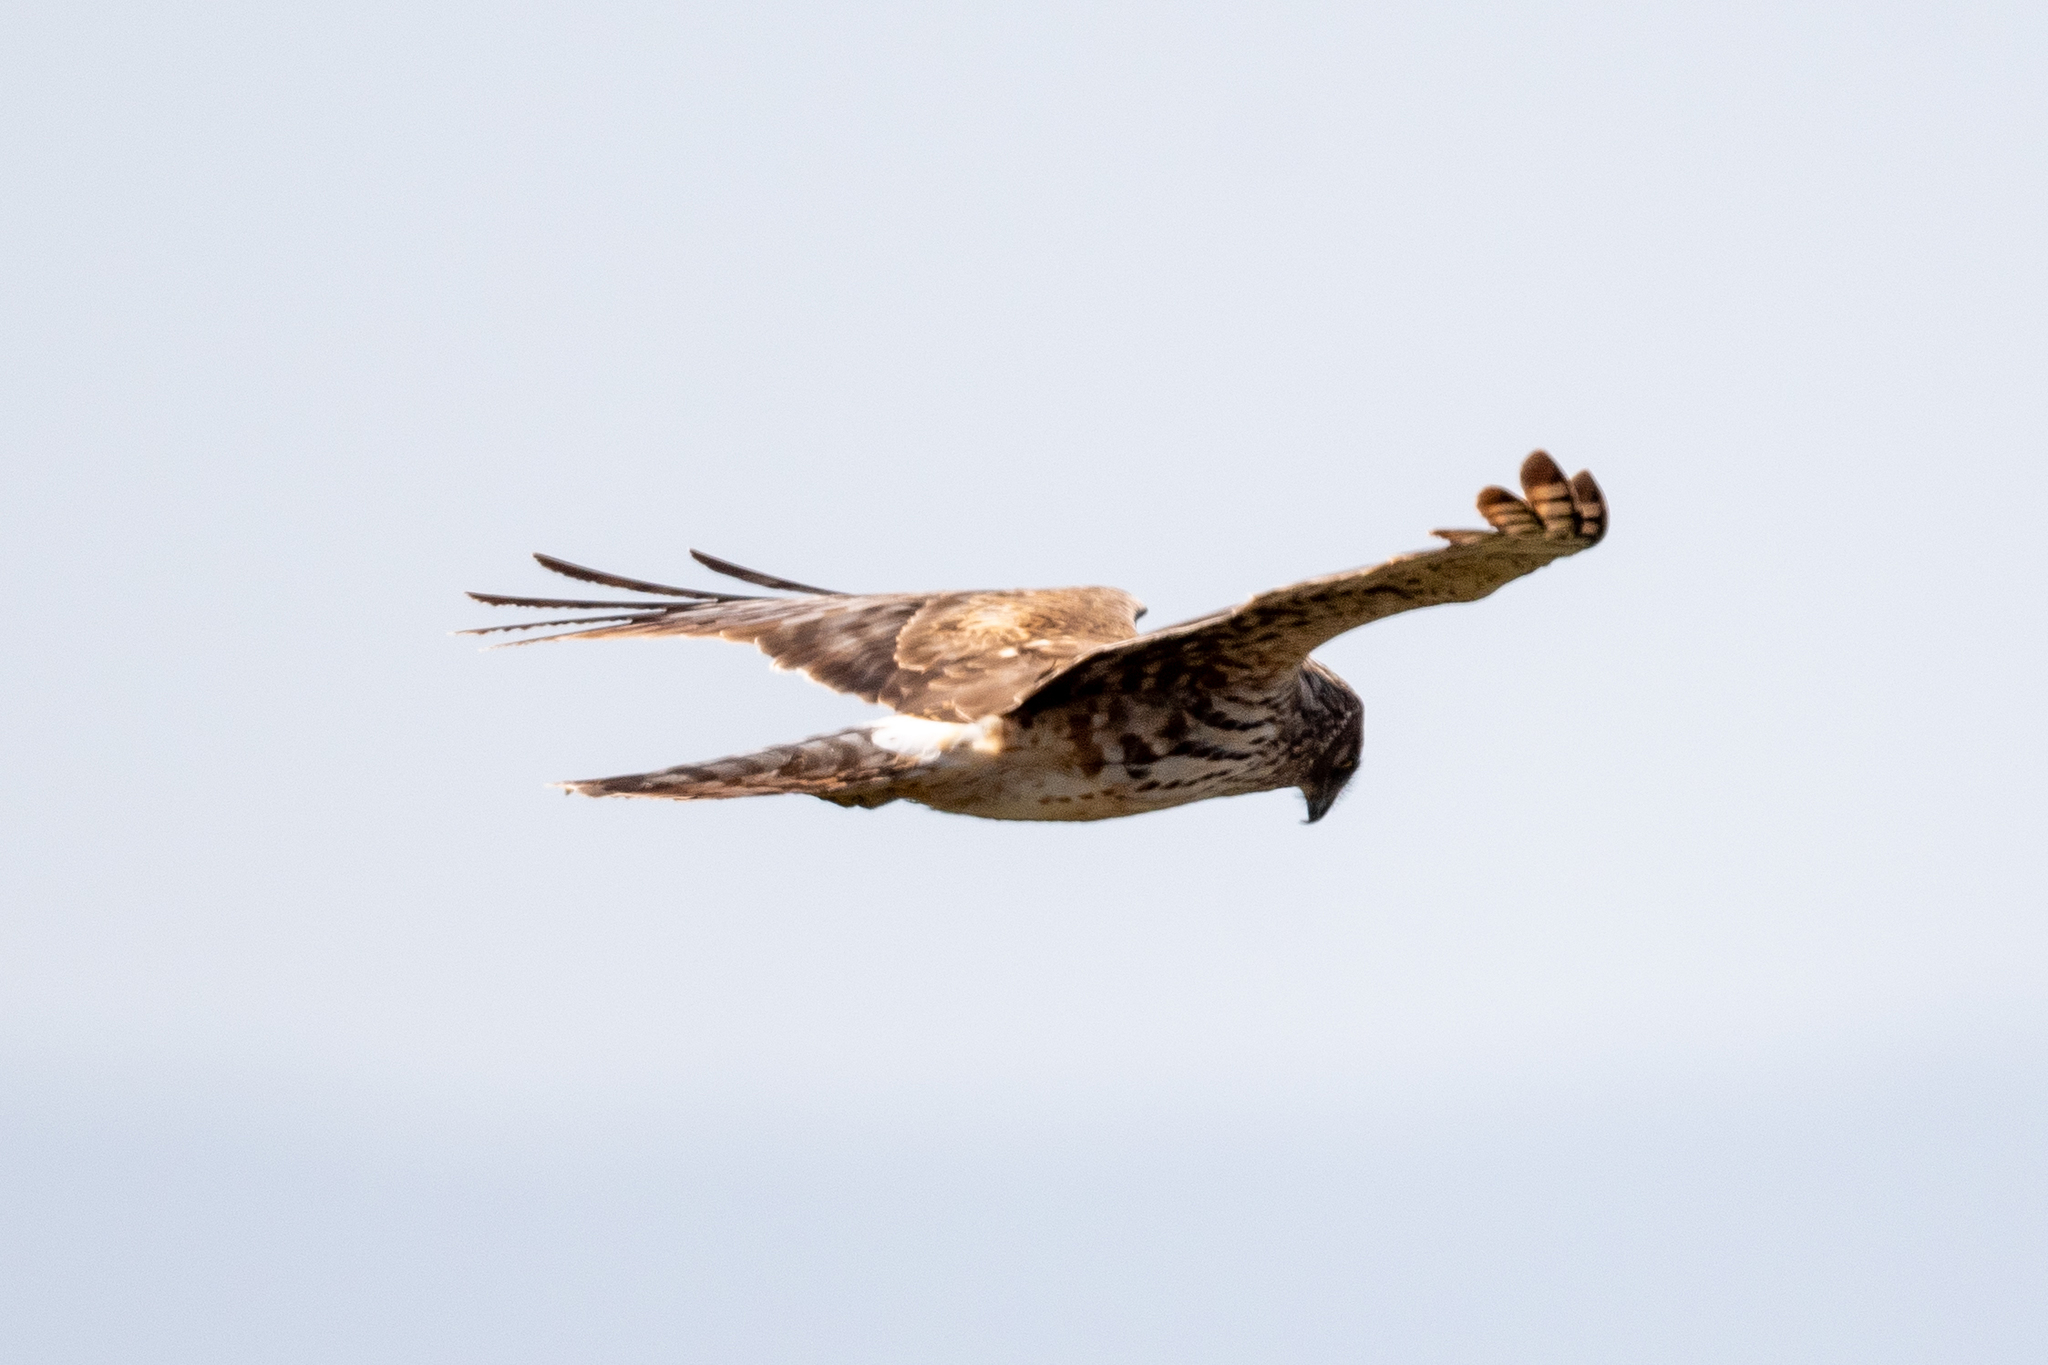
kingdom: Animalia
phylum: Chordata
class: Aves
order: Accipitriformes
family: Accipitridae
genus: Circus
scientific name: Circus cyaneus
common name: Hen harrier
